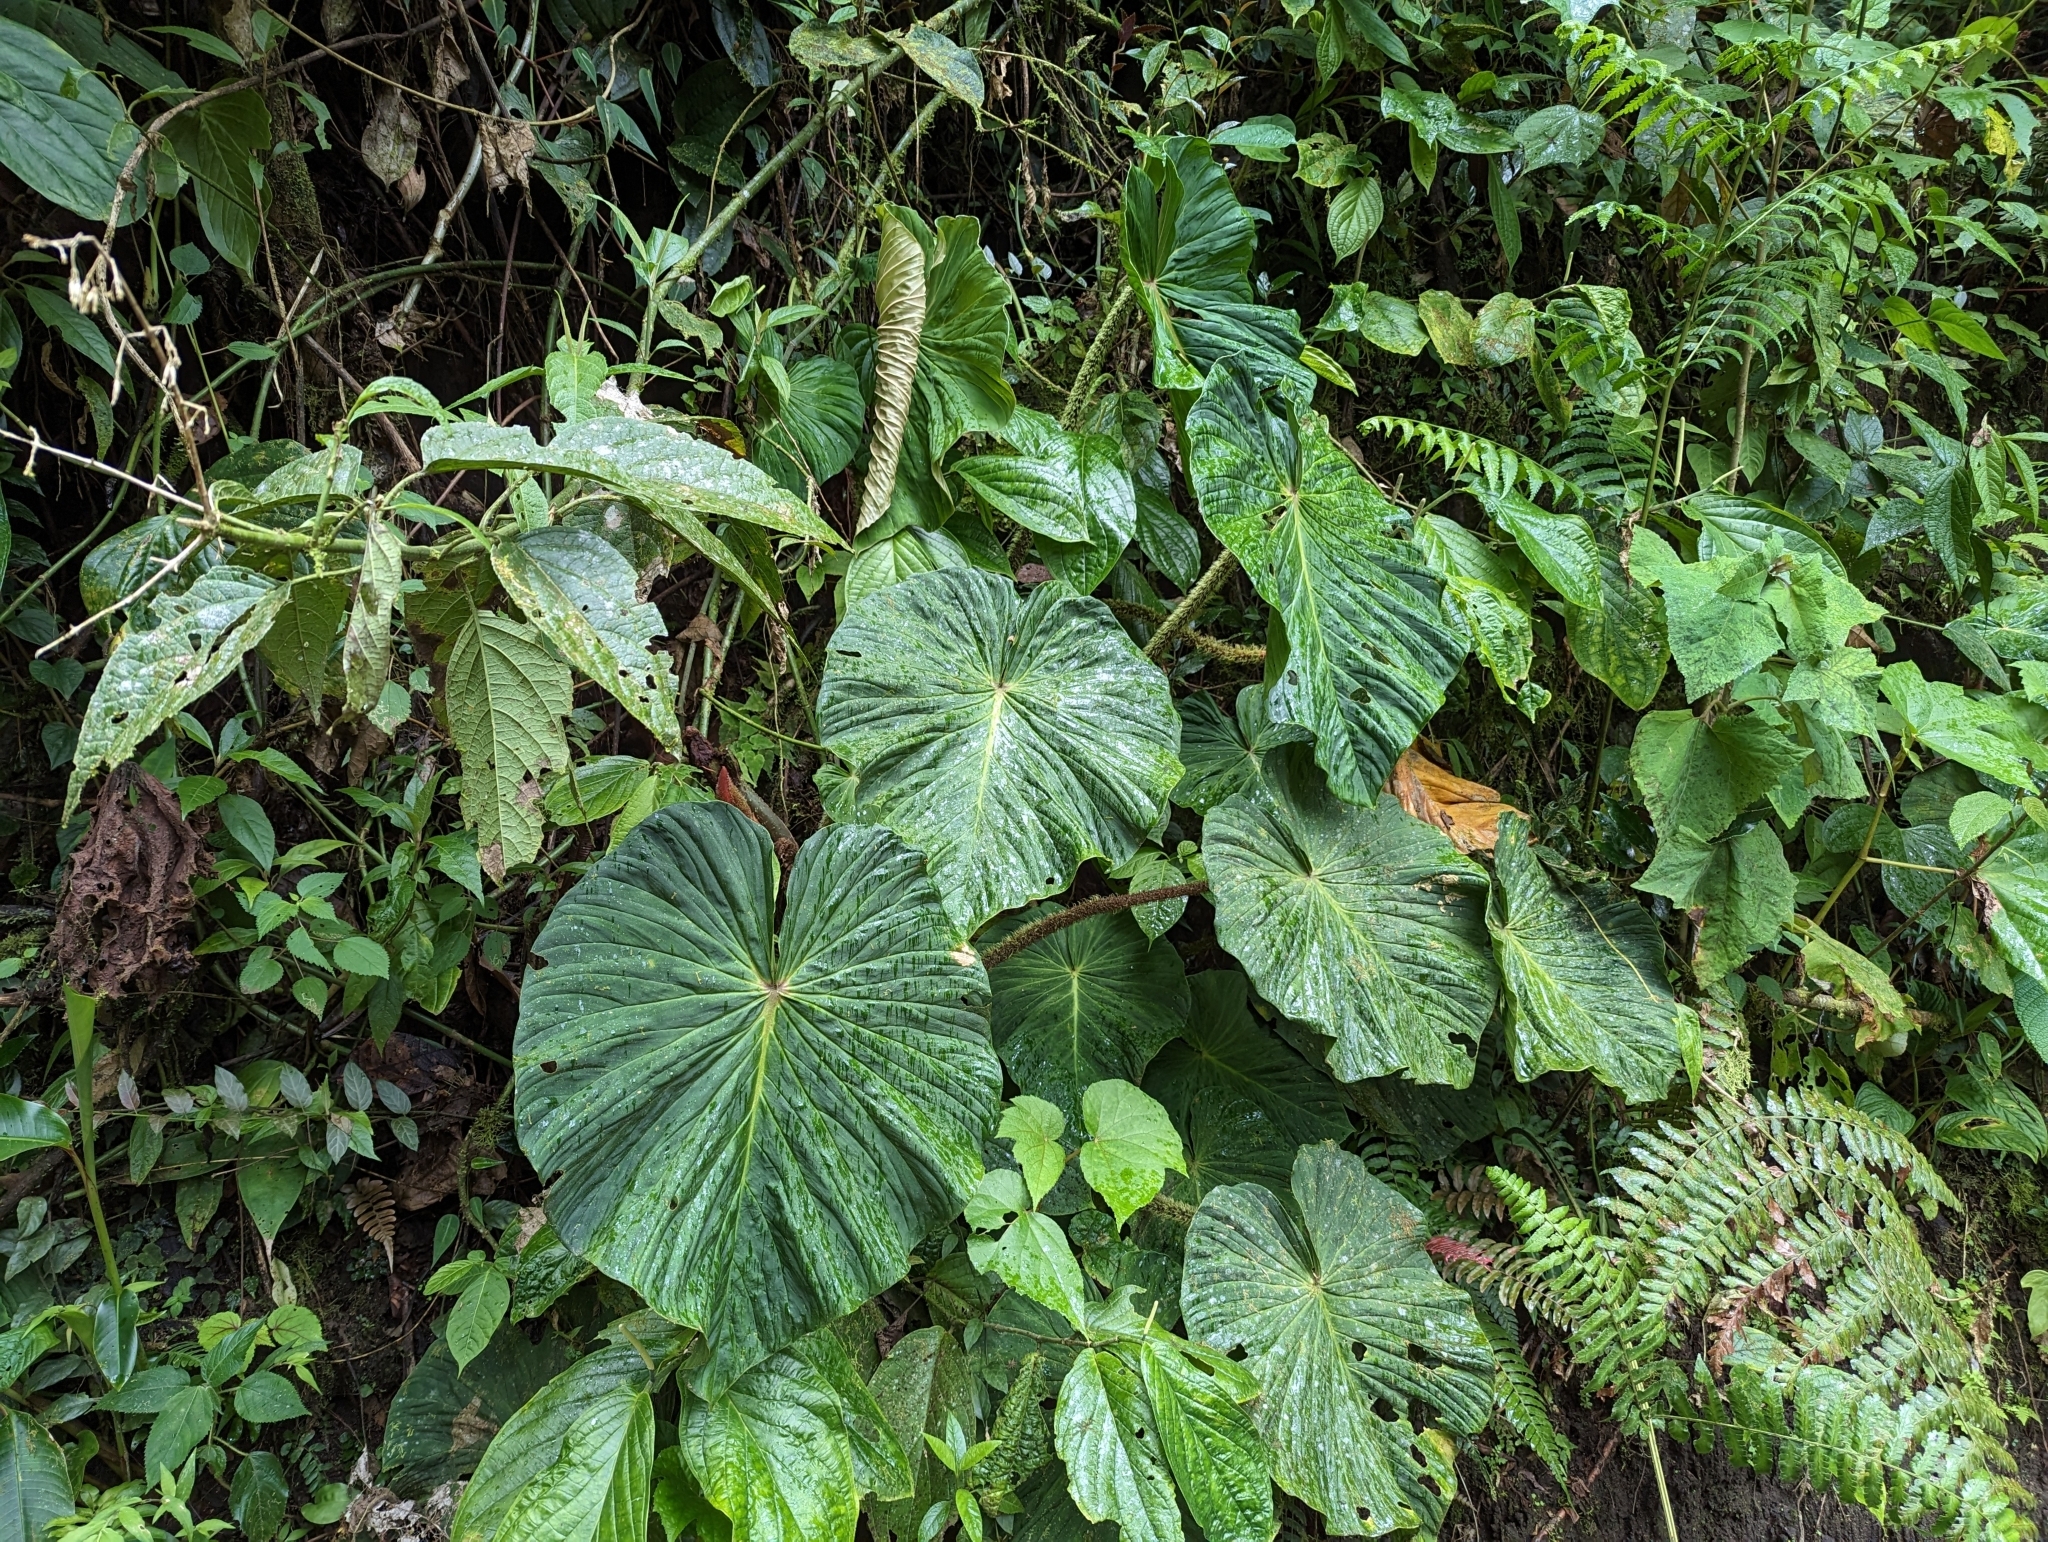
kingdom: Plantae
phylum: Tracheophyta
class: Liliopsida
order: Alismatales
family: Araceae
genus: Philodendron
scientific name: Philodendron fibrosum
